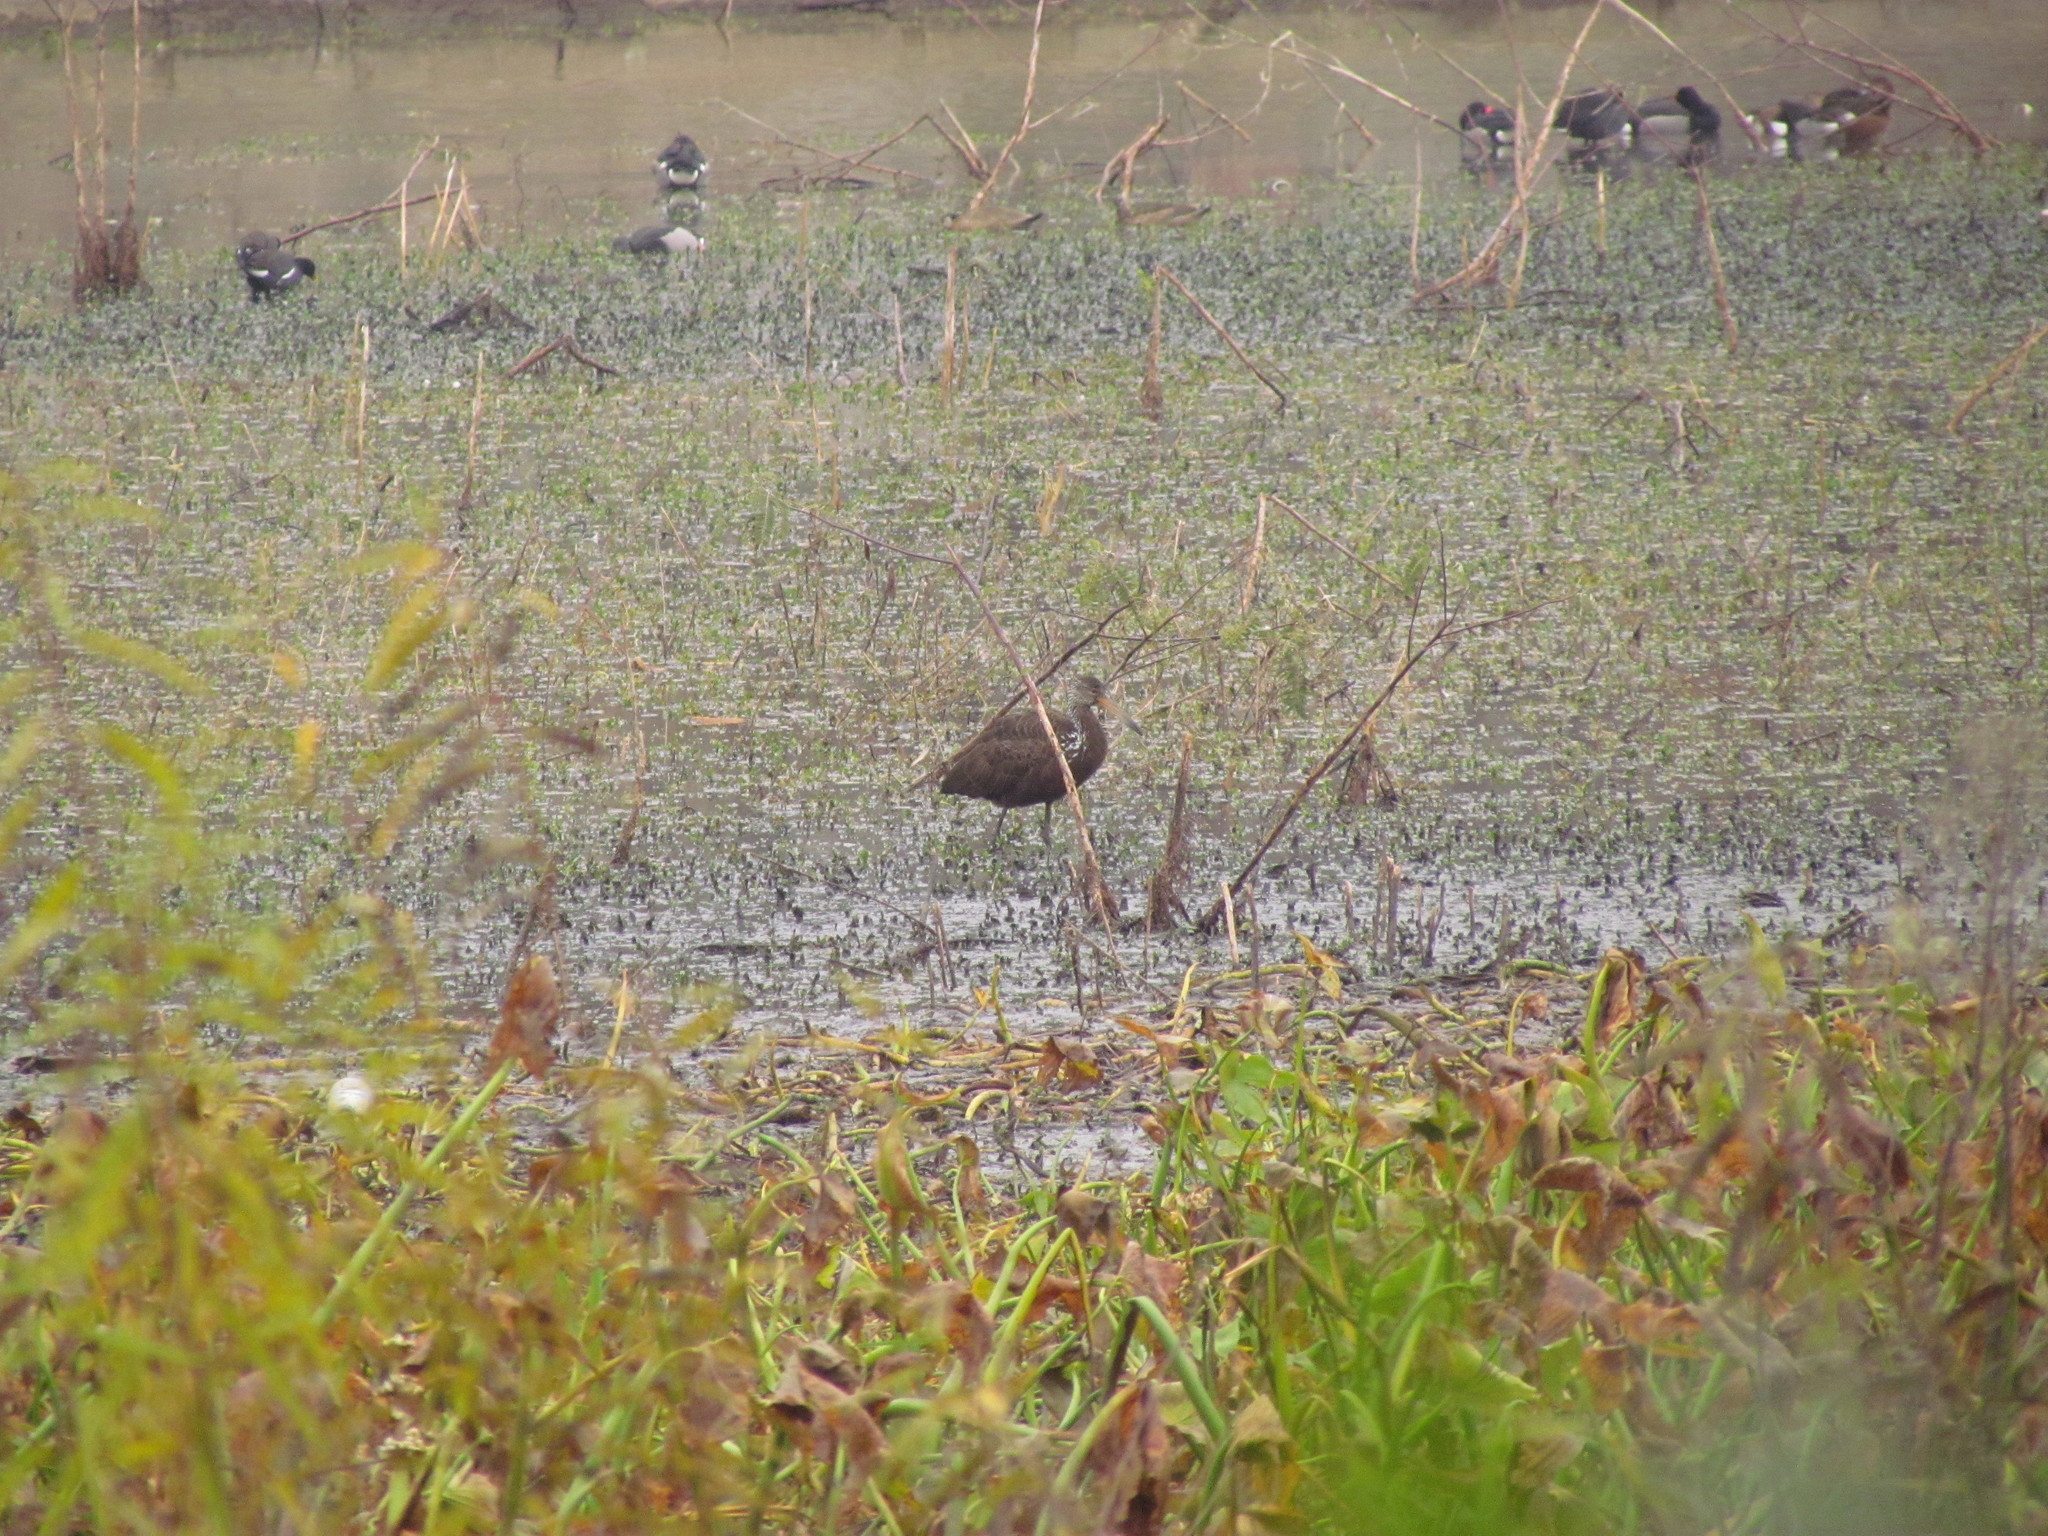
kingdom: Animalia
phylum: Chordata
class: Aves
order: Gruiformes
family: Aramidae
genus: Aramus
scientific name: Aramus guarauna
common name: Limpkin
